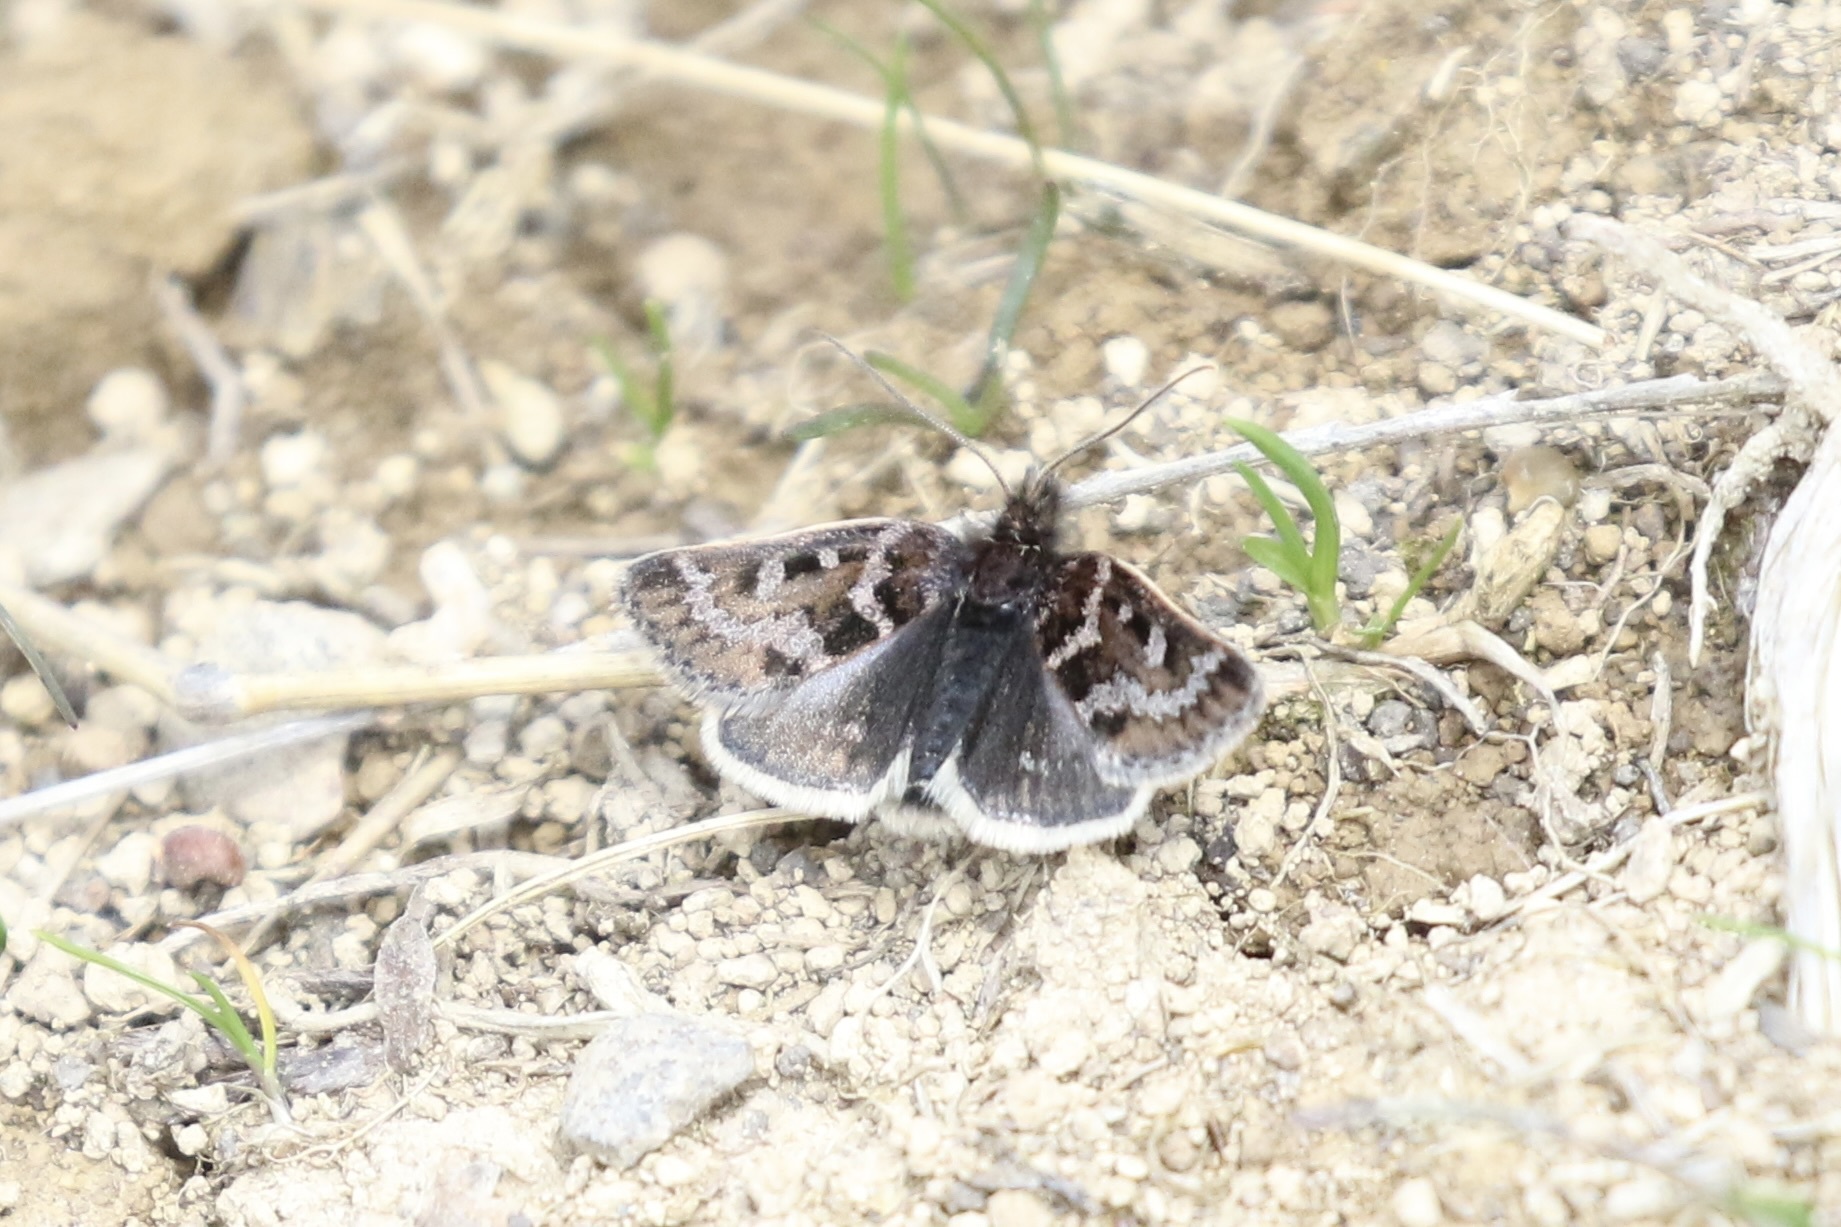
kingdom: Animalia
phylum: Arthropoda
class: Insecta
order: Lepidoptera
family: Crambidae
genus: Metaxmeste
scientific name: Metaxmeste schrankiana
